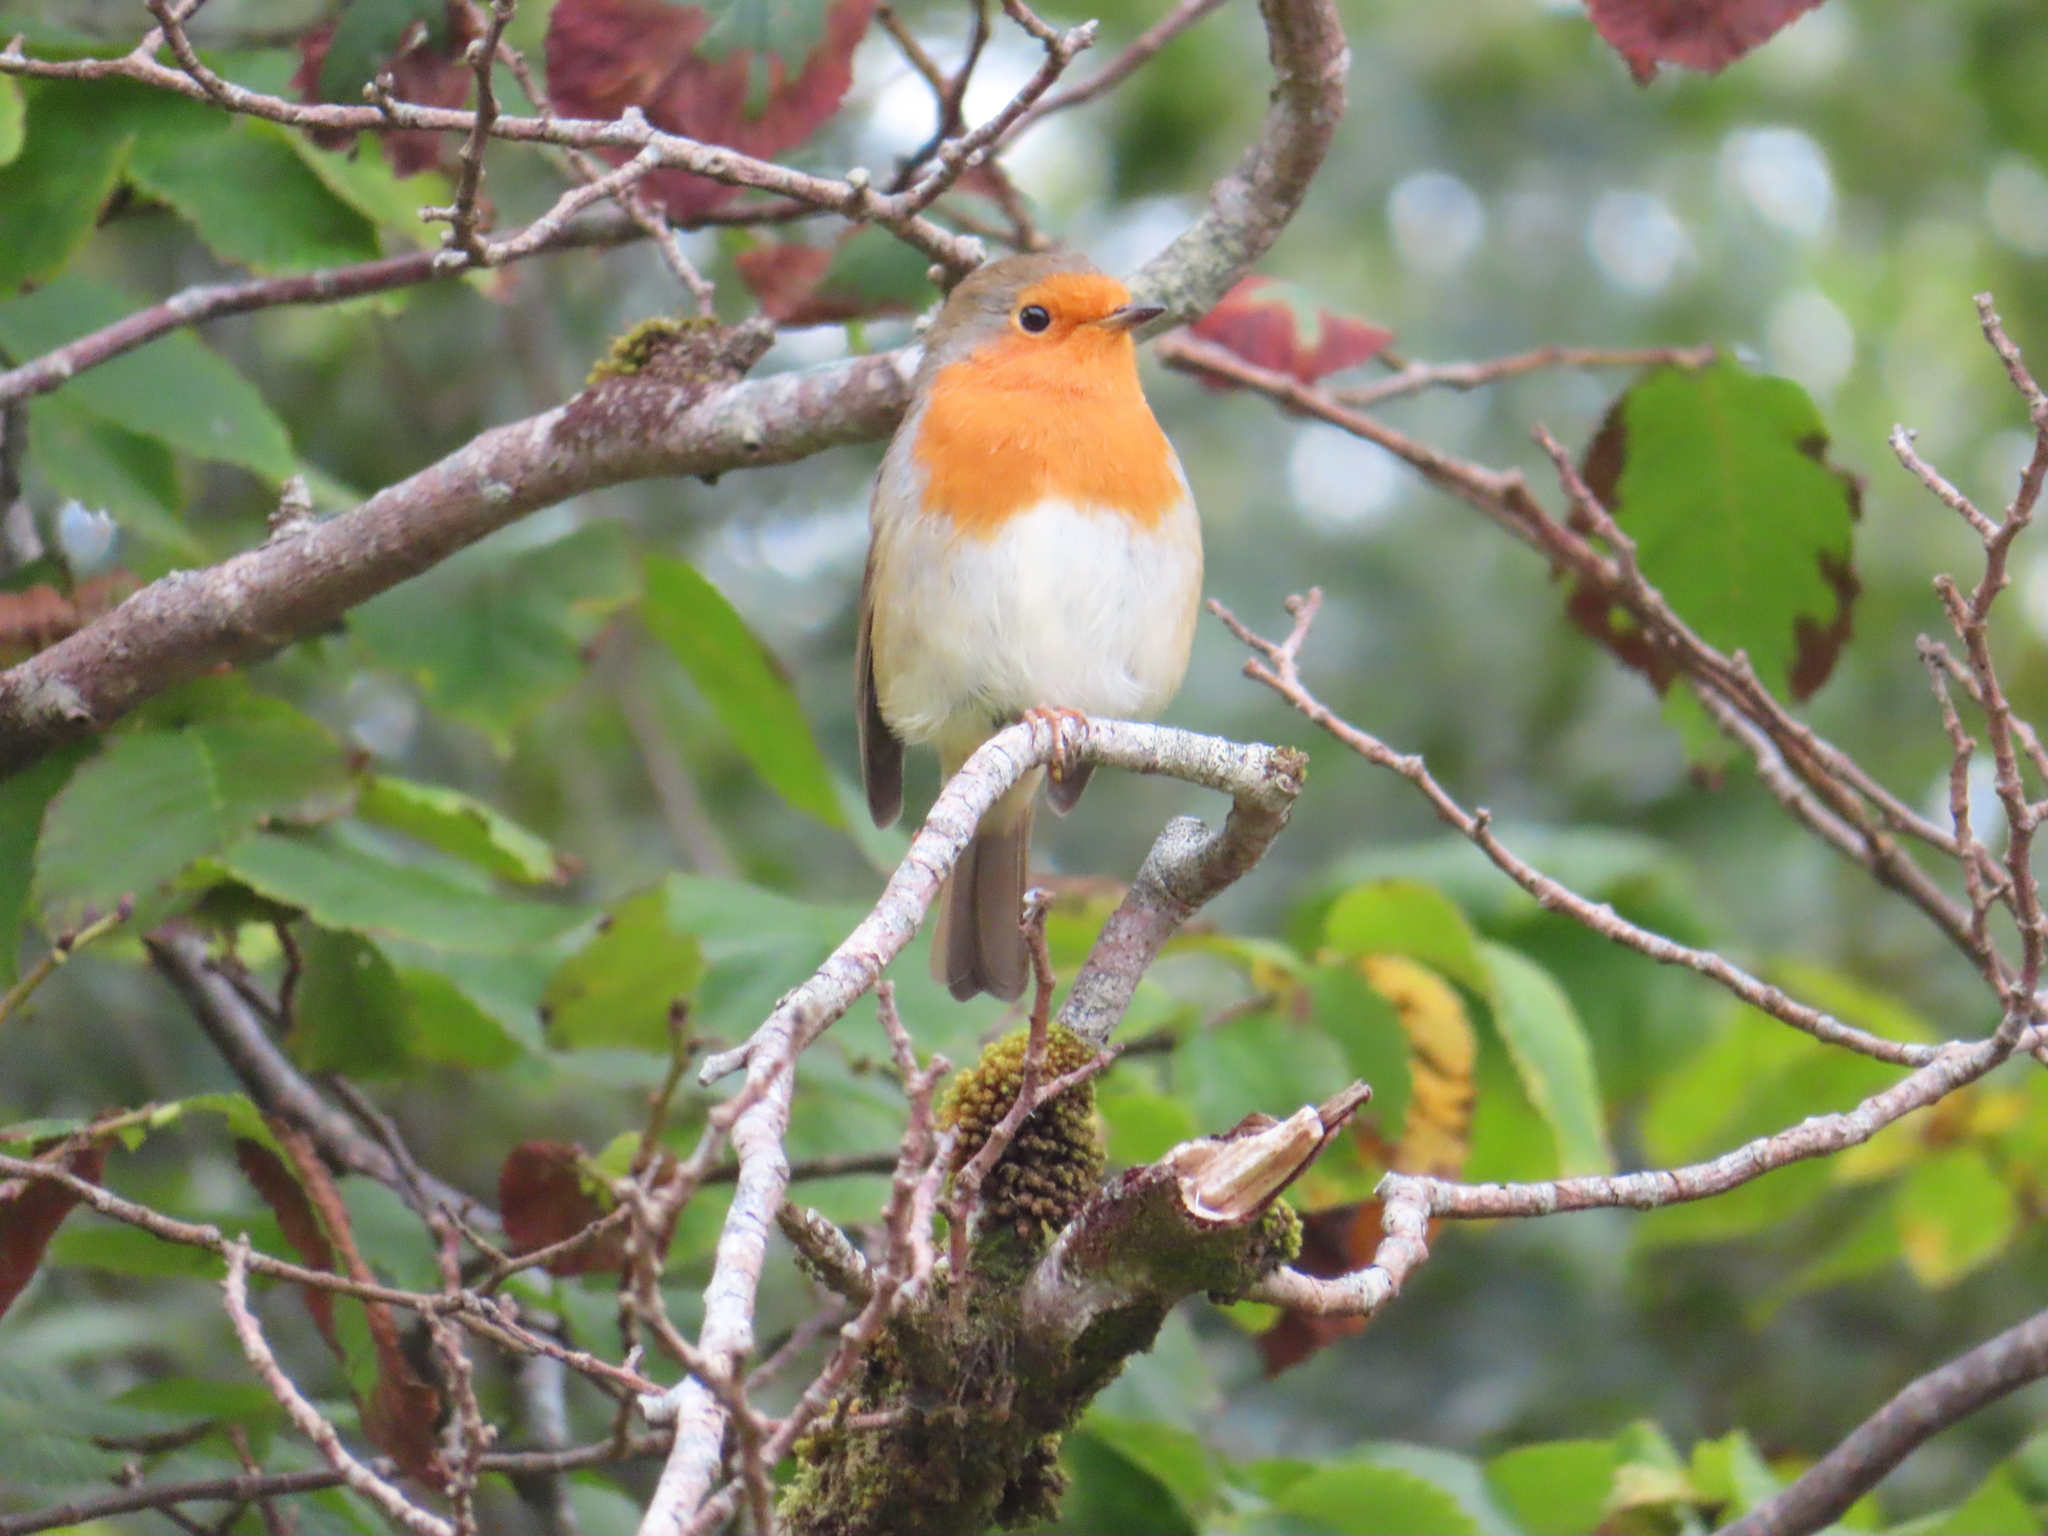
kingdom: Animalia
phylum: Chordata
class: Aves
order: Passeriformes
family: Muscicapidae
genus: Erithacus
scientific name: Erithacus rubecula
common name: European robin
